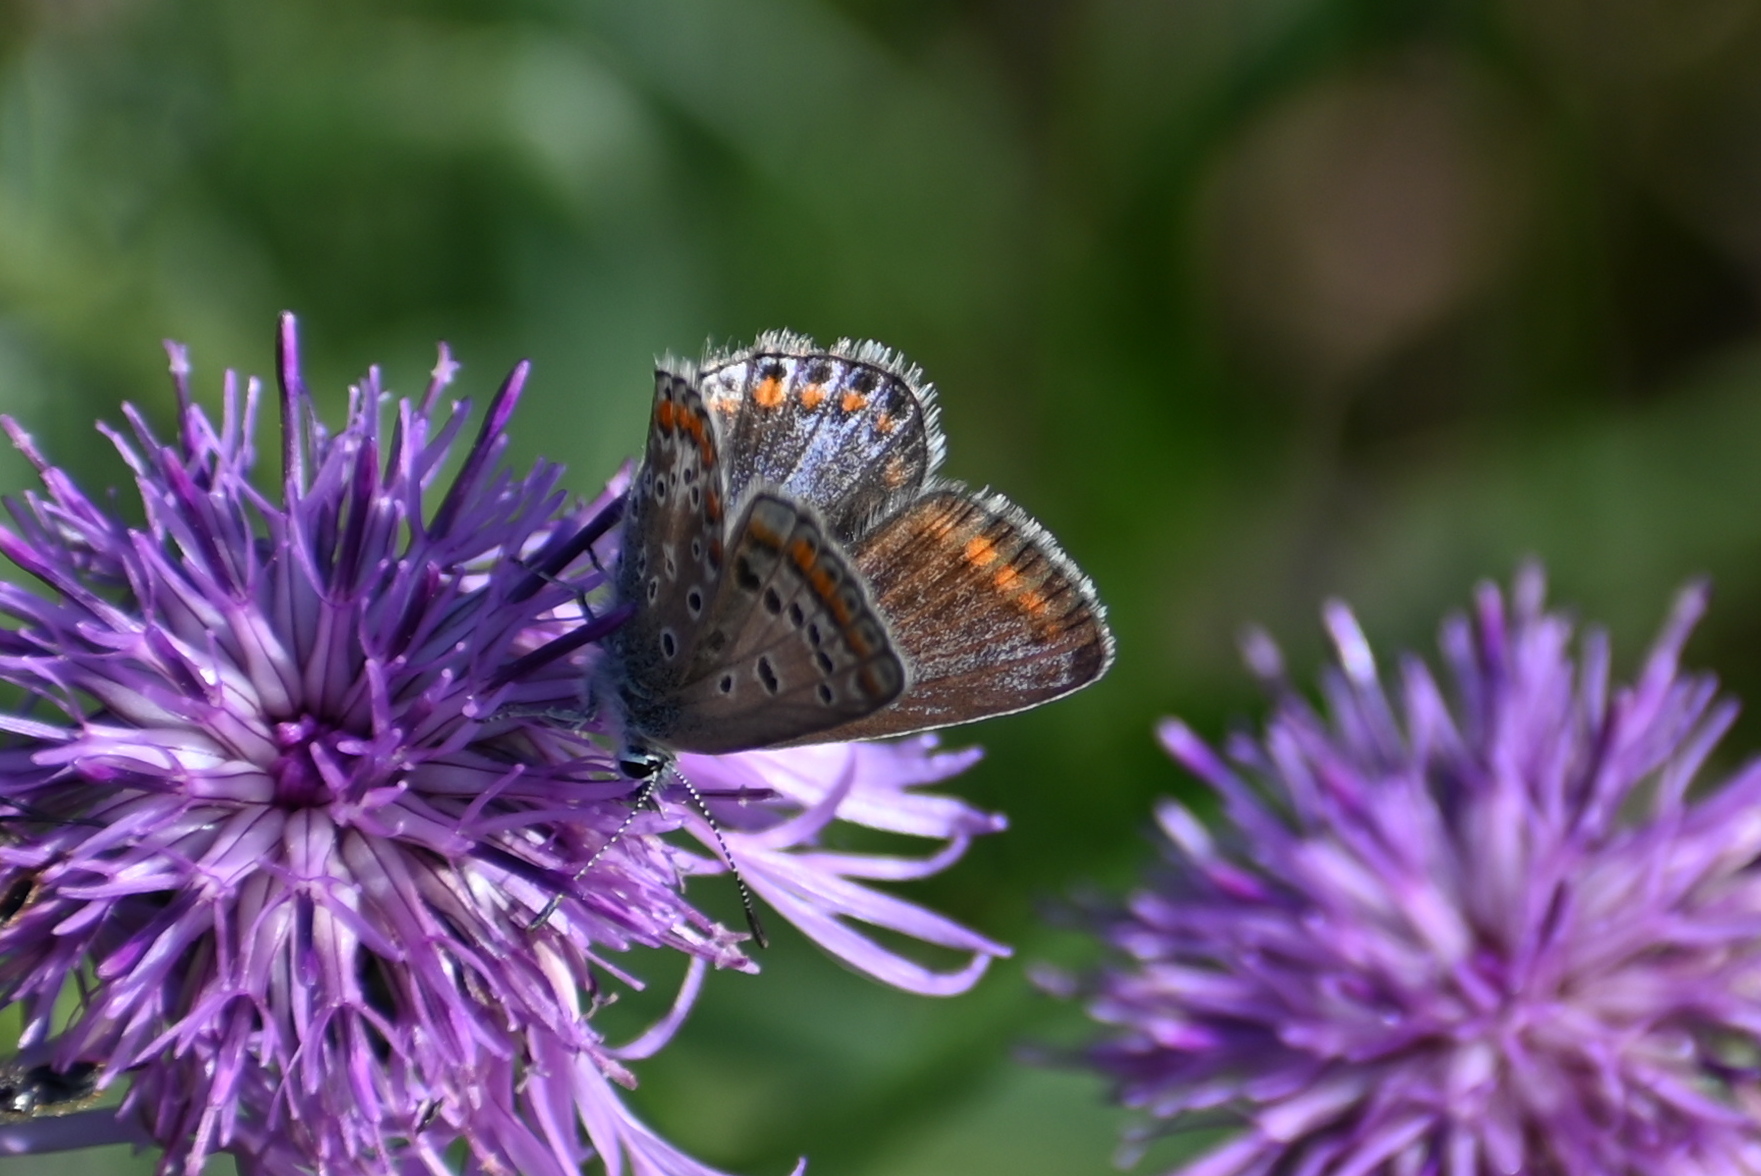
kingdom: Animalia
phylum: Arthropoda
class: Insecta
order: Lepidoptera
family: Lycaenidae
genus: Polyommatus
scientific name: Polyommatus icarus
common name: Common blue
